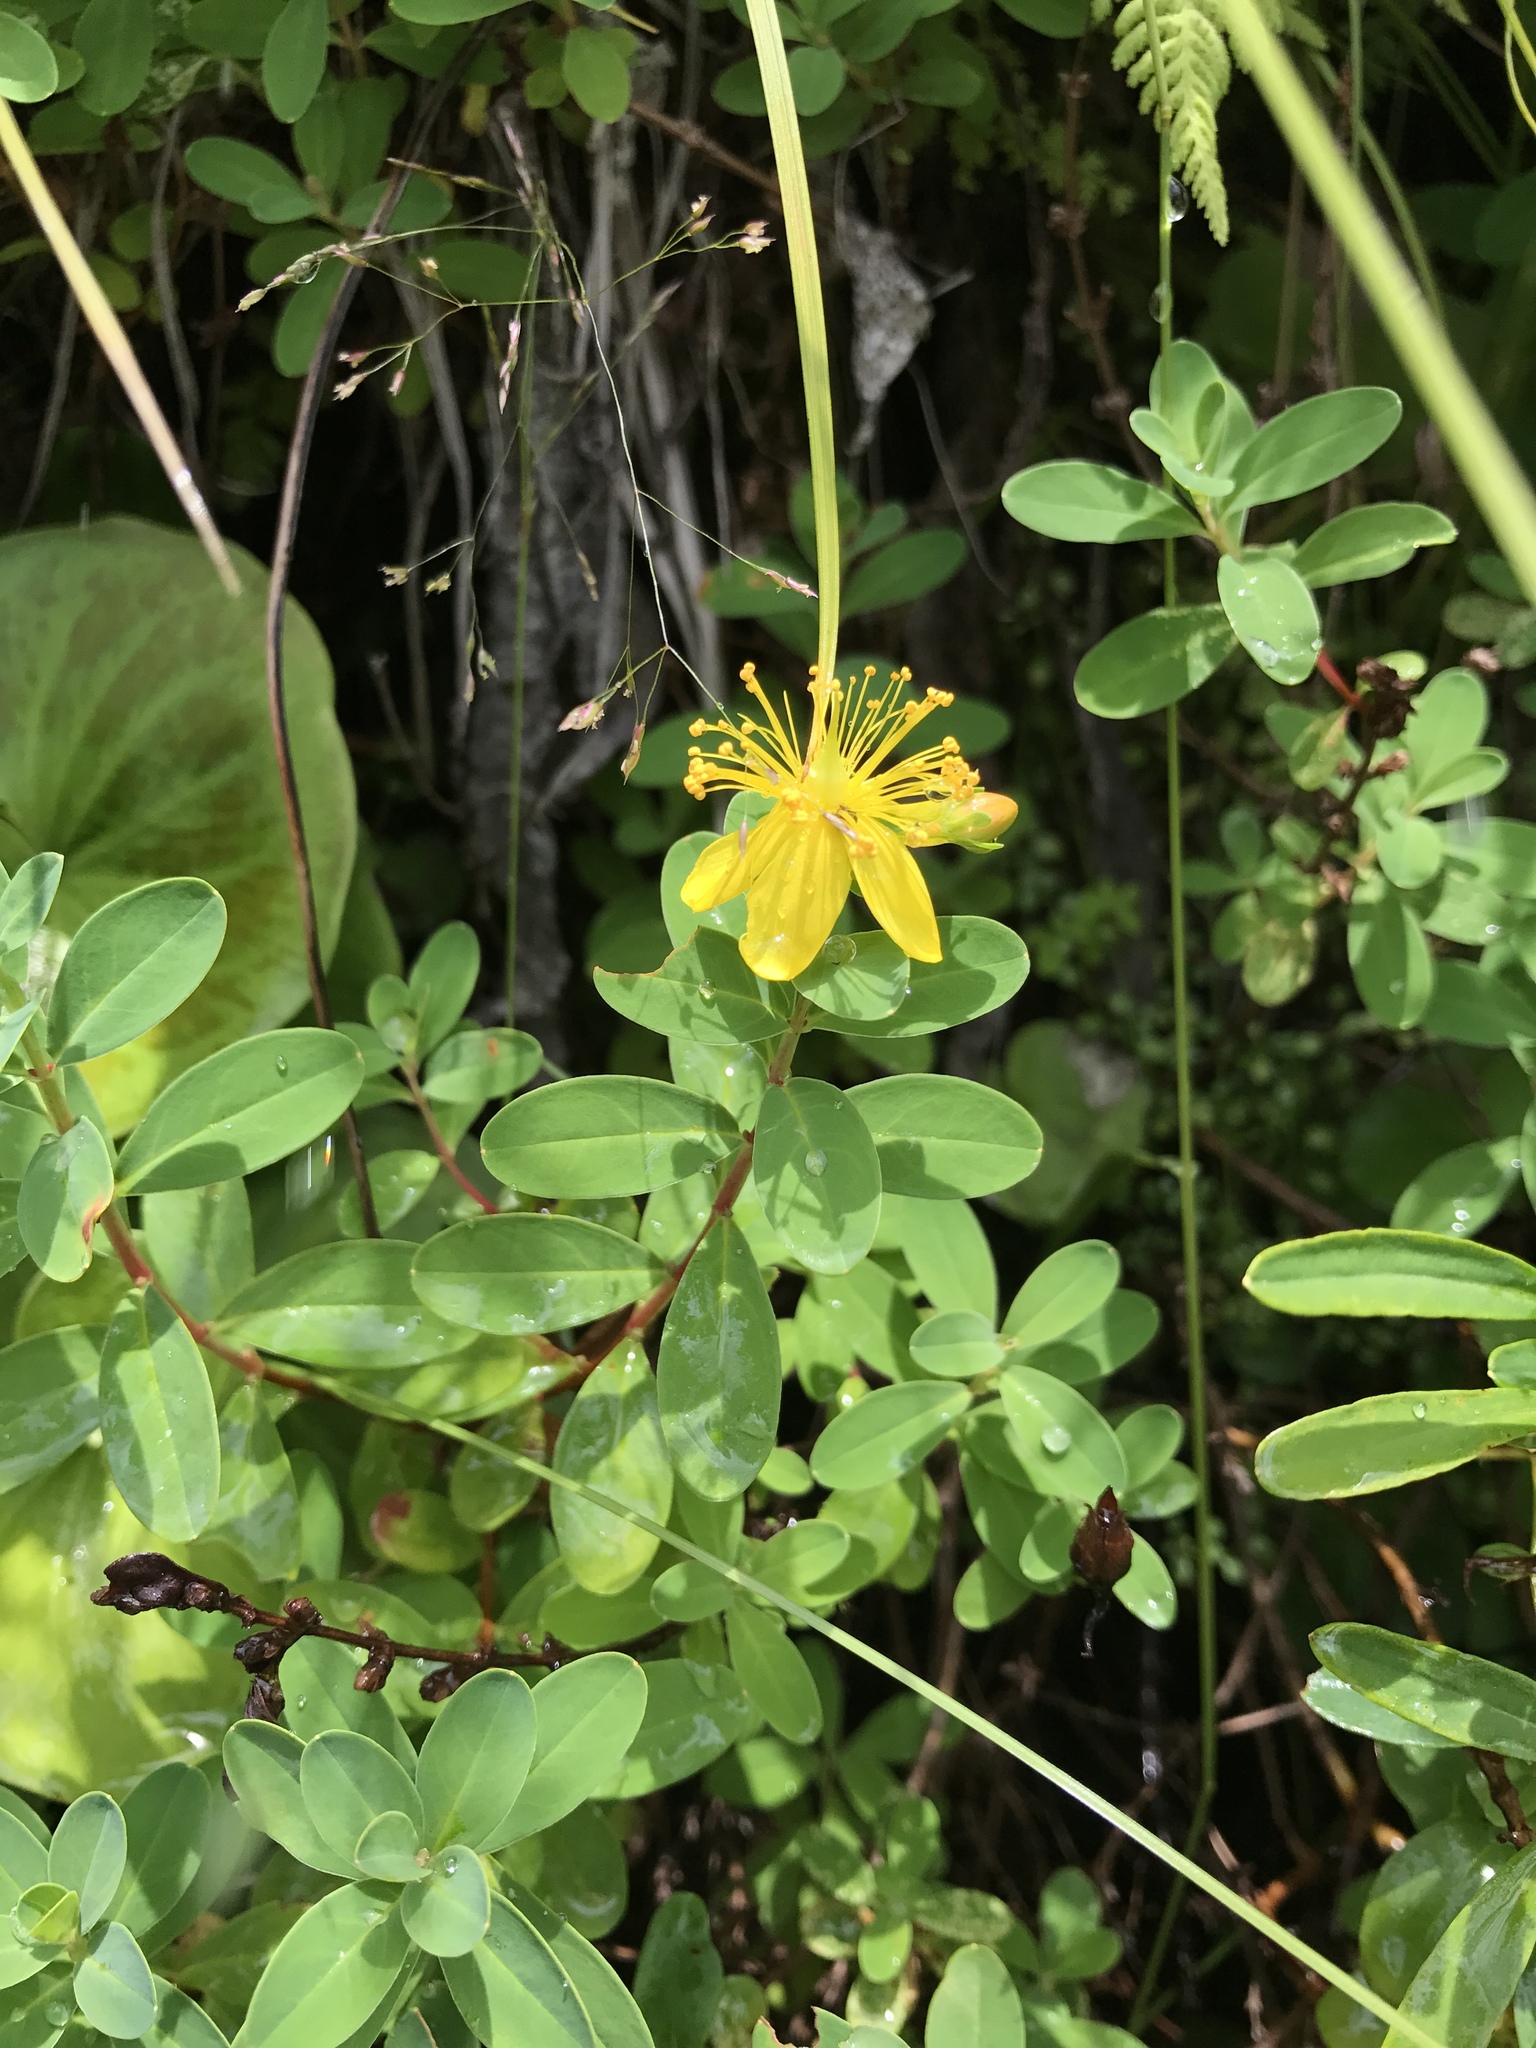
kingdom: Plantae
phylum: Tracheophyta
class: Magnoliopsida
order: Malpighiales
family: Hypericaceae
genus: Hypericum
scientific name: Hypericum buckleyi
